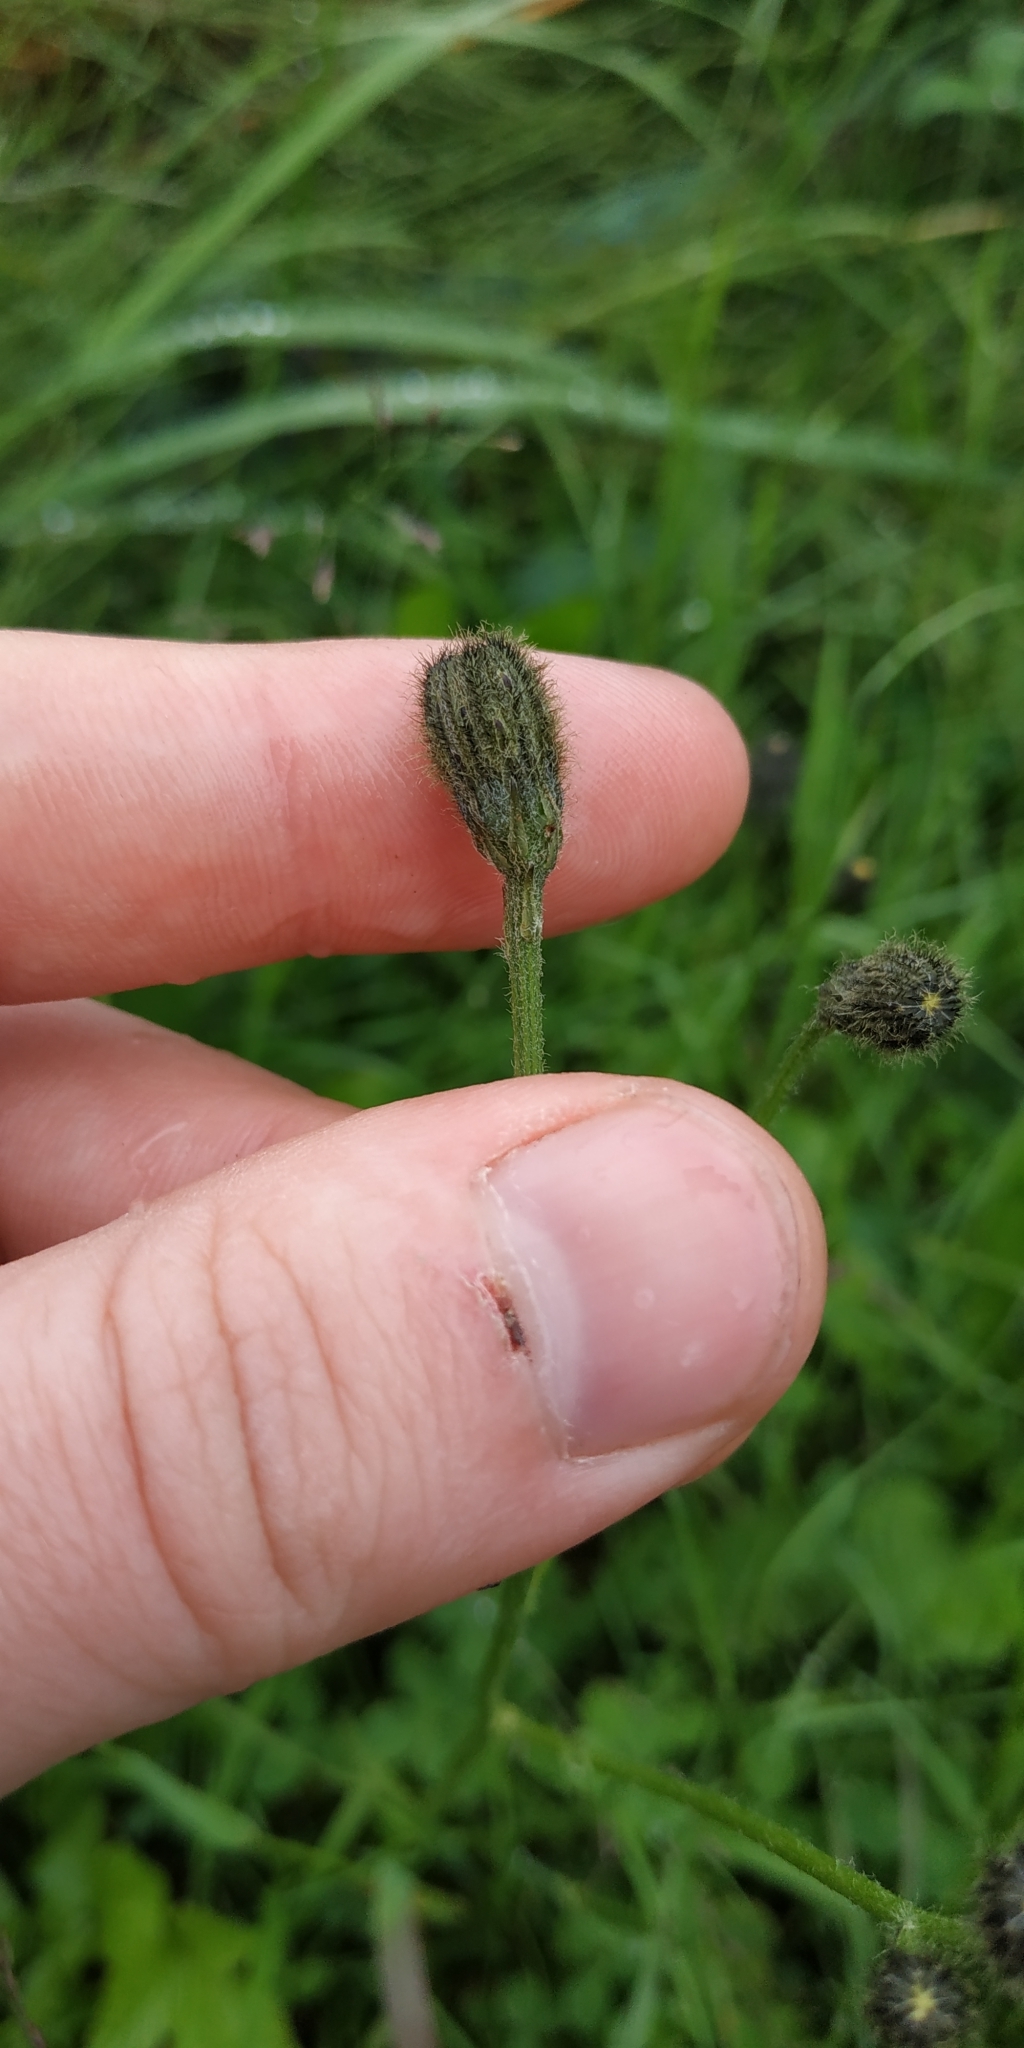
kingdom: Plantae
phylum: Tracheophyta
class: Magnoliopsida
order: Asterales
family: Asteraceae
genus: Scorzoneroides
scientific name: Scorzoneroides autumnalis
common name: Autumn hawkbit
